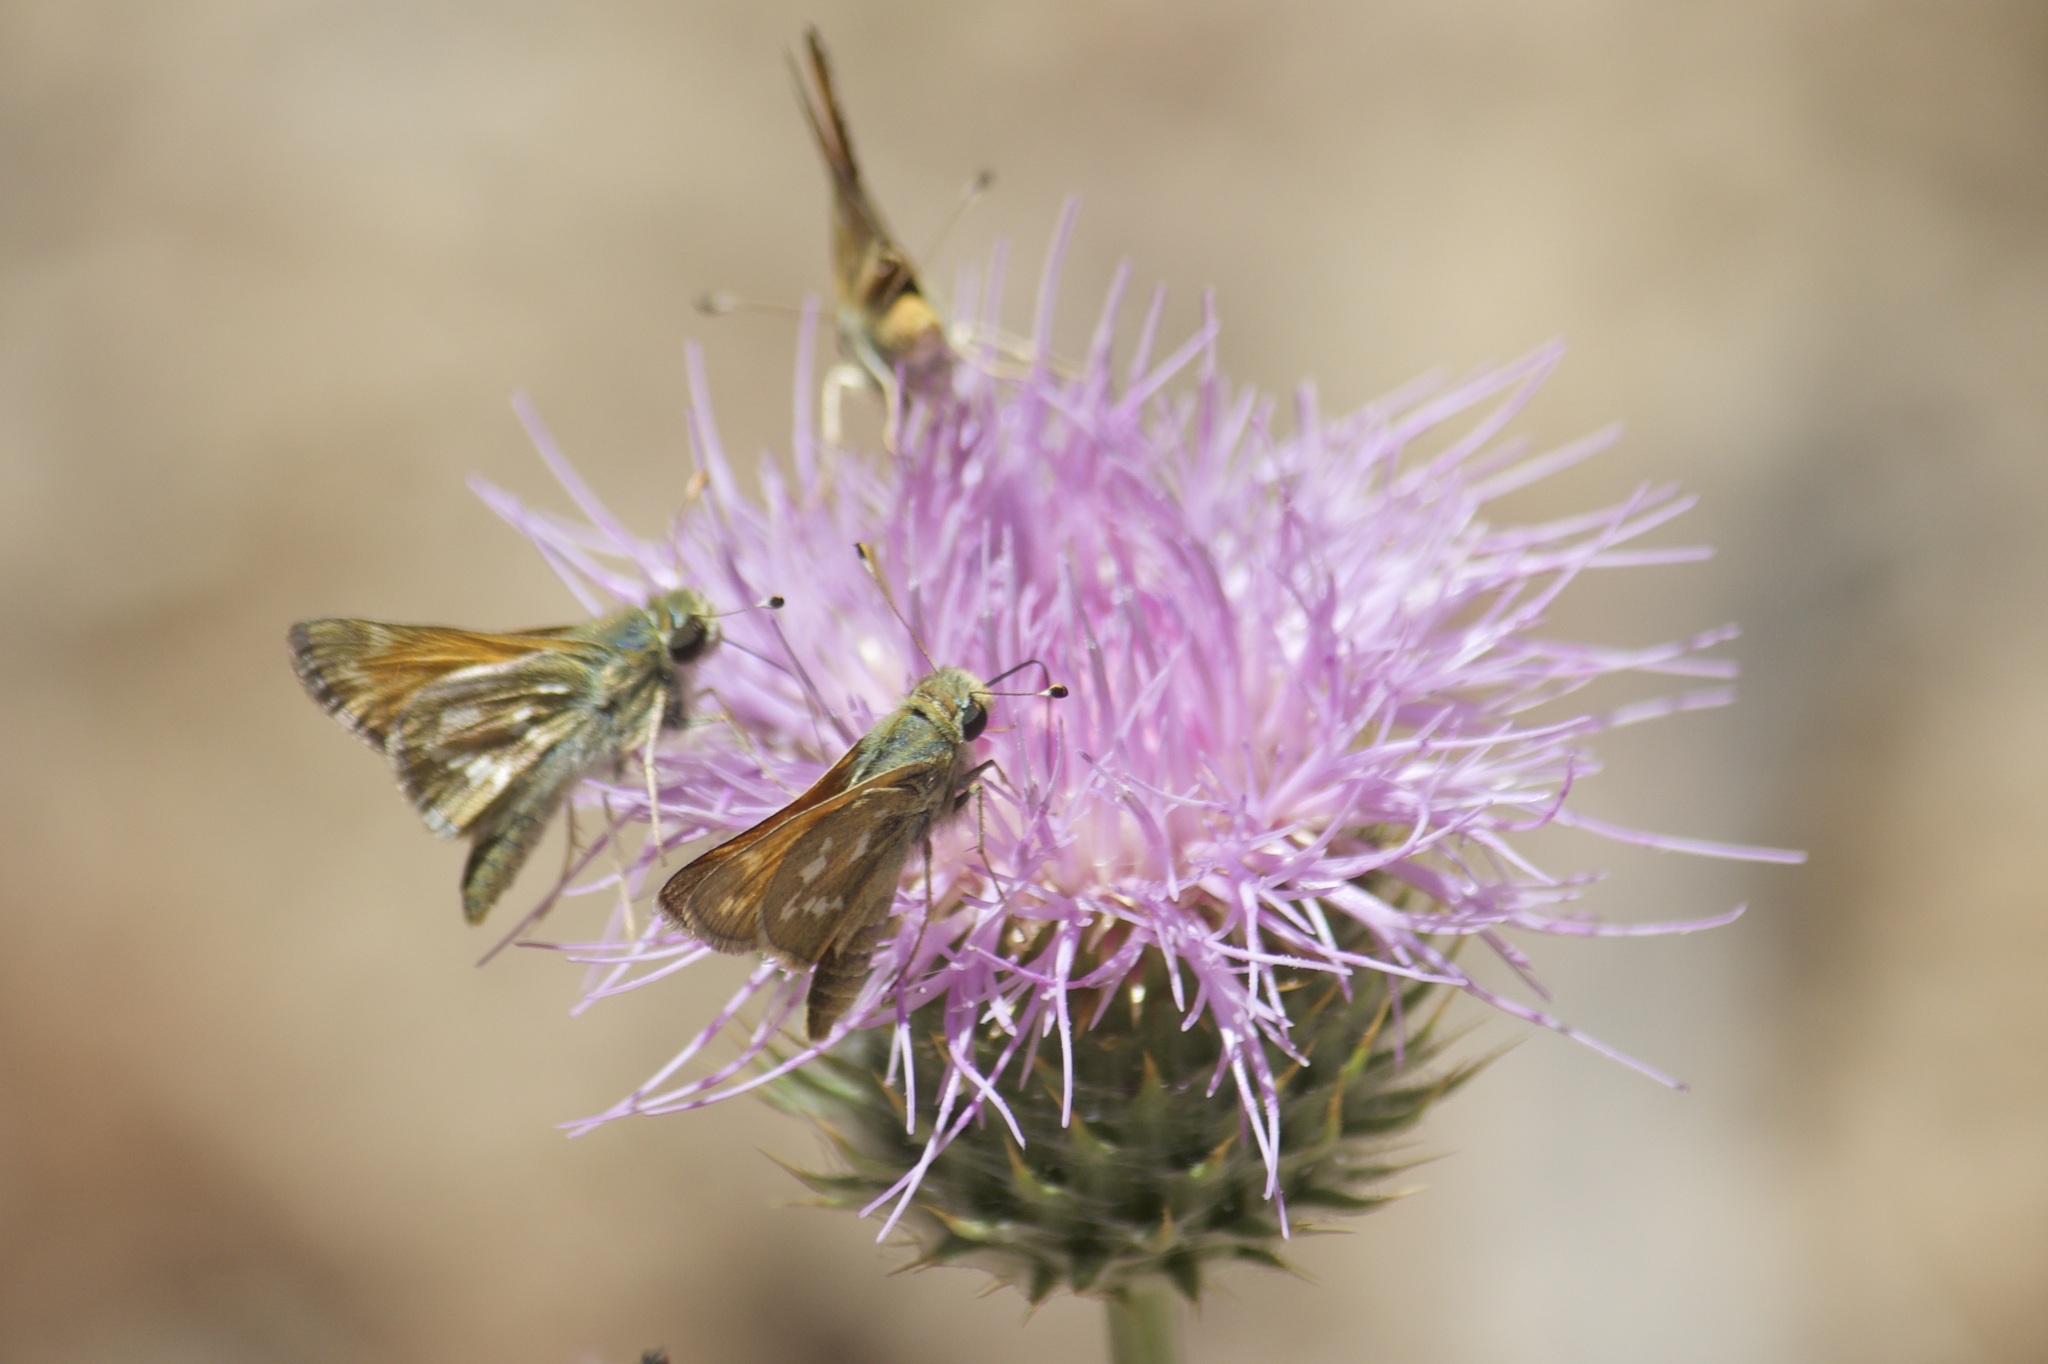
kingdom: Animalia
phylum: Arthropoda
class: Insecta
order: Lepidoptera
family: Hesperiidae
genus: Hesperia
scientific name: Hesperia comma
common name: Common branded skipper
